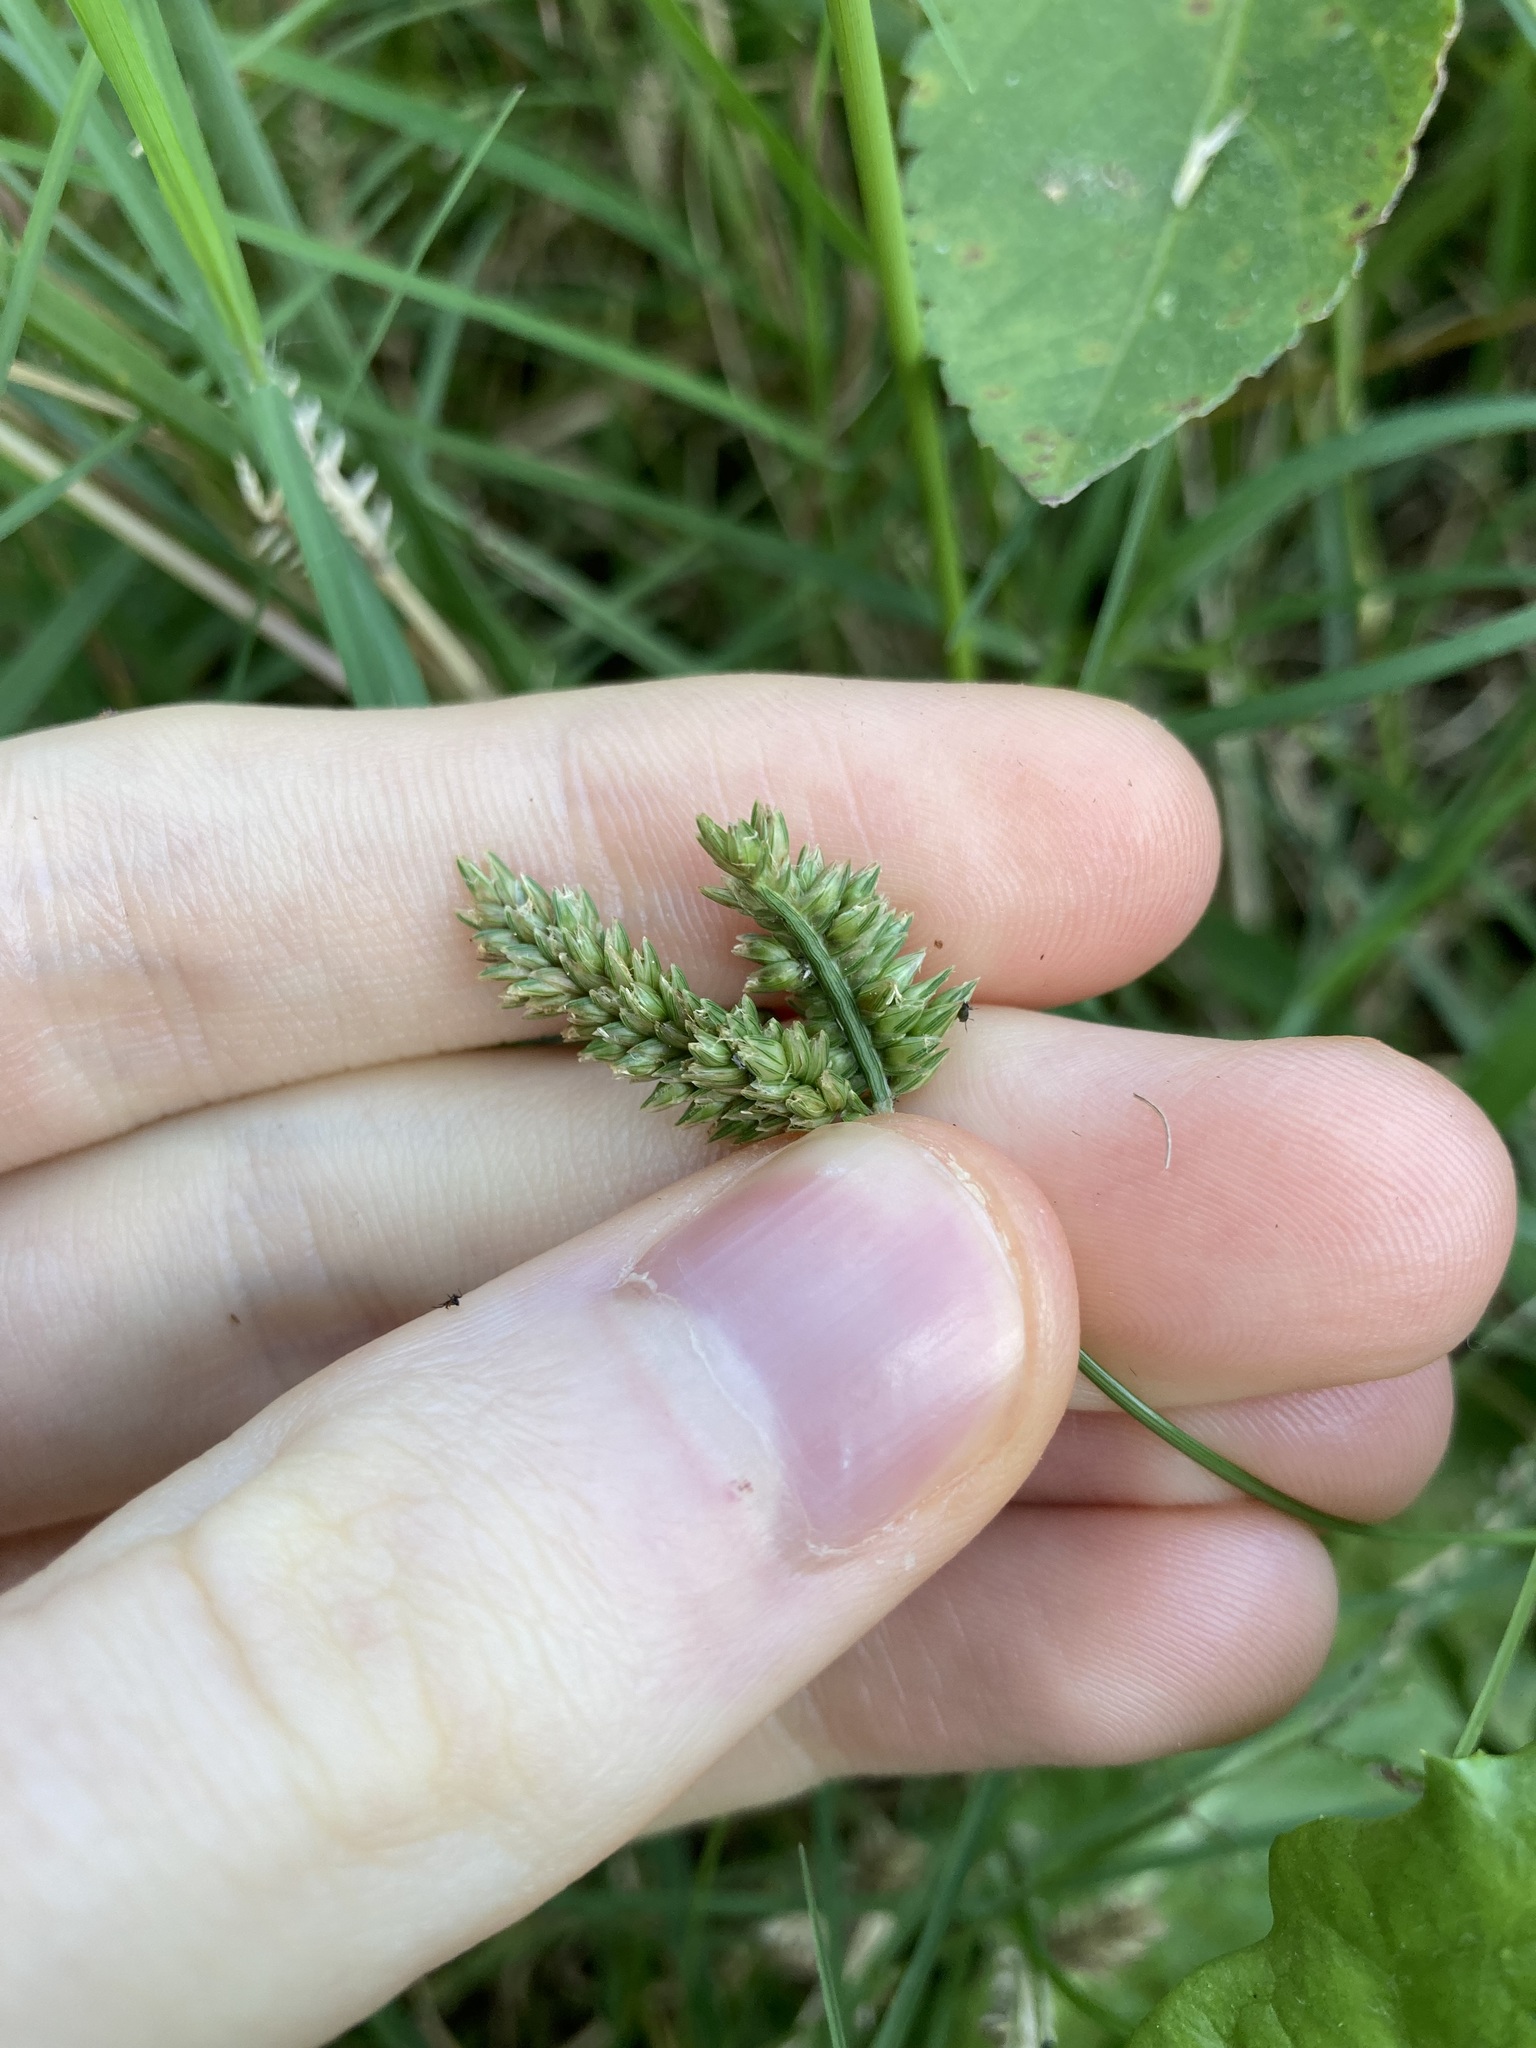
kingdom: Plantae
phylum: Tracheophyta
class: Liliopsida
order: Poales
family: Poaceae
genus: Eleusine
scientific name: Eleusine tristachya
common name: American yard-grass
